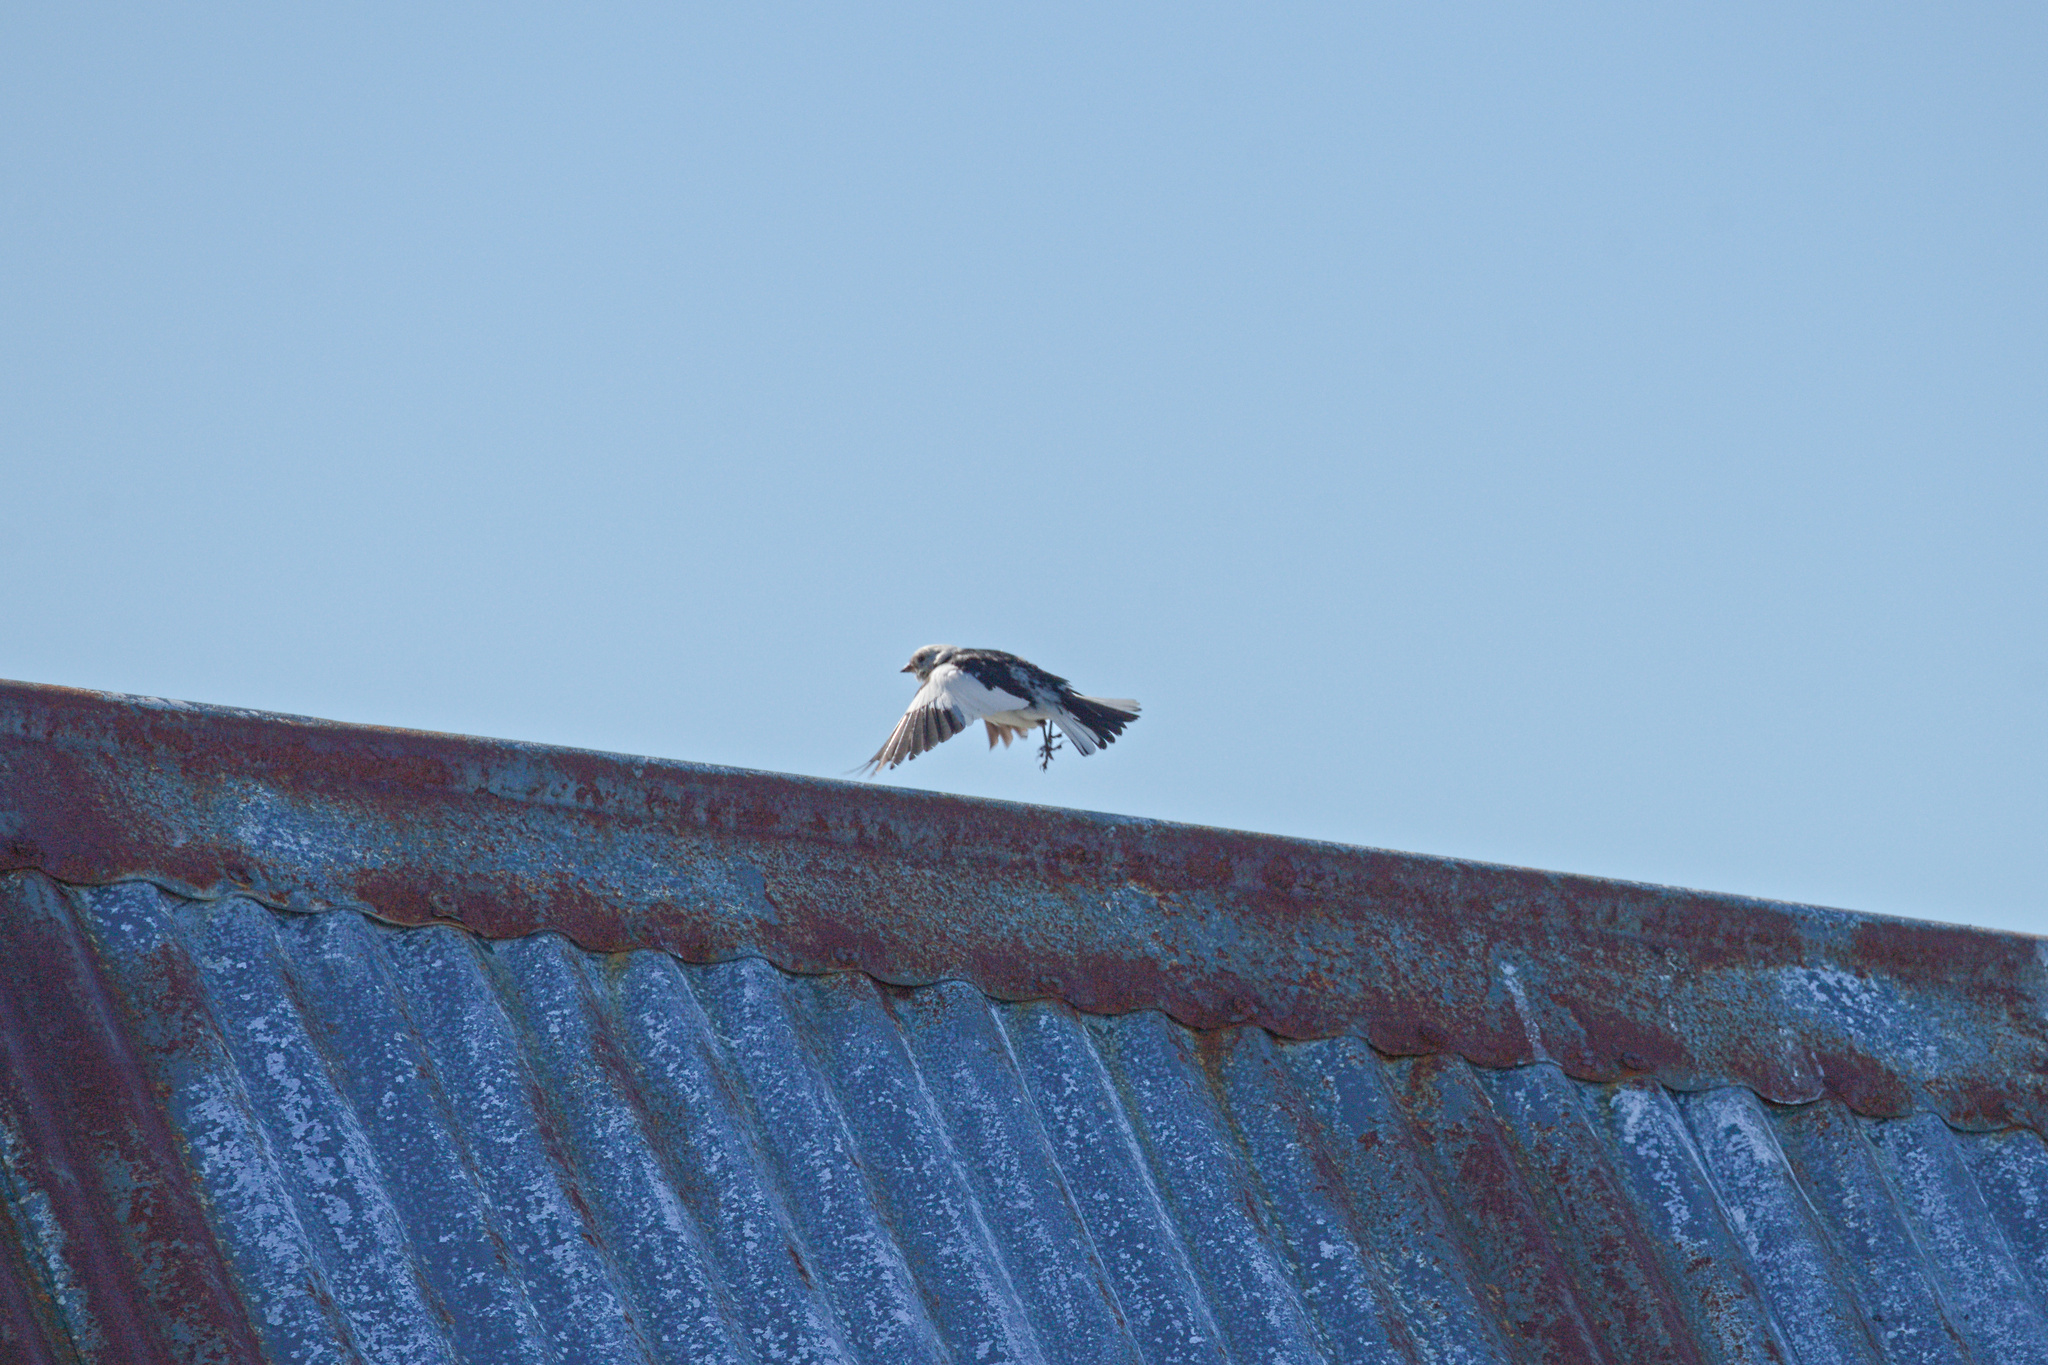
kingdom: Animalia
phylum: Chordata
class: Aves
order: Passeriformes
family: Calcariidae
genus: Plectrophenax
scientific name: Plectrophenax nivalis
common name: Snow bunting
